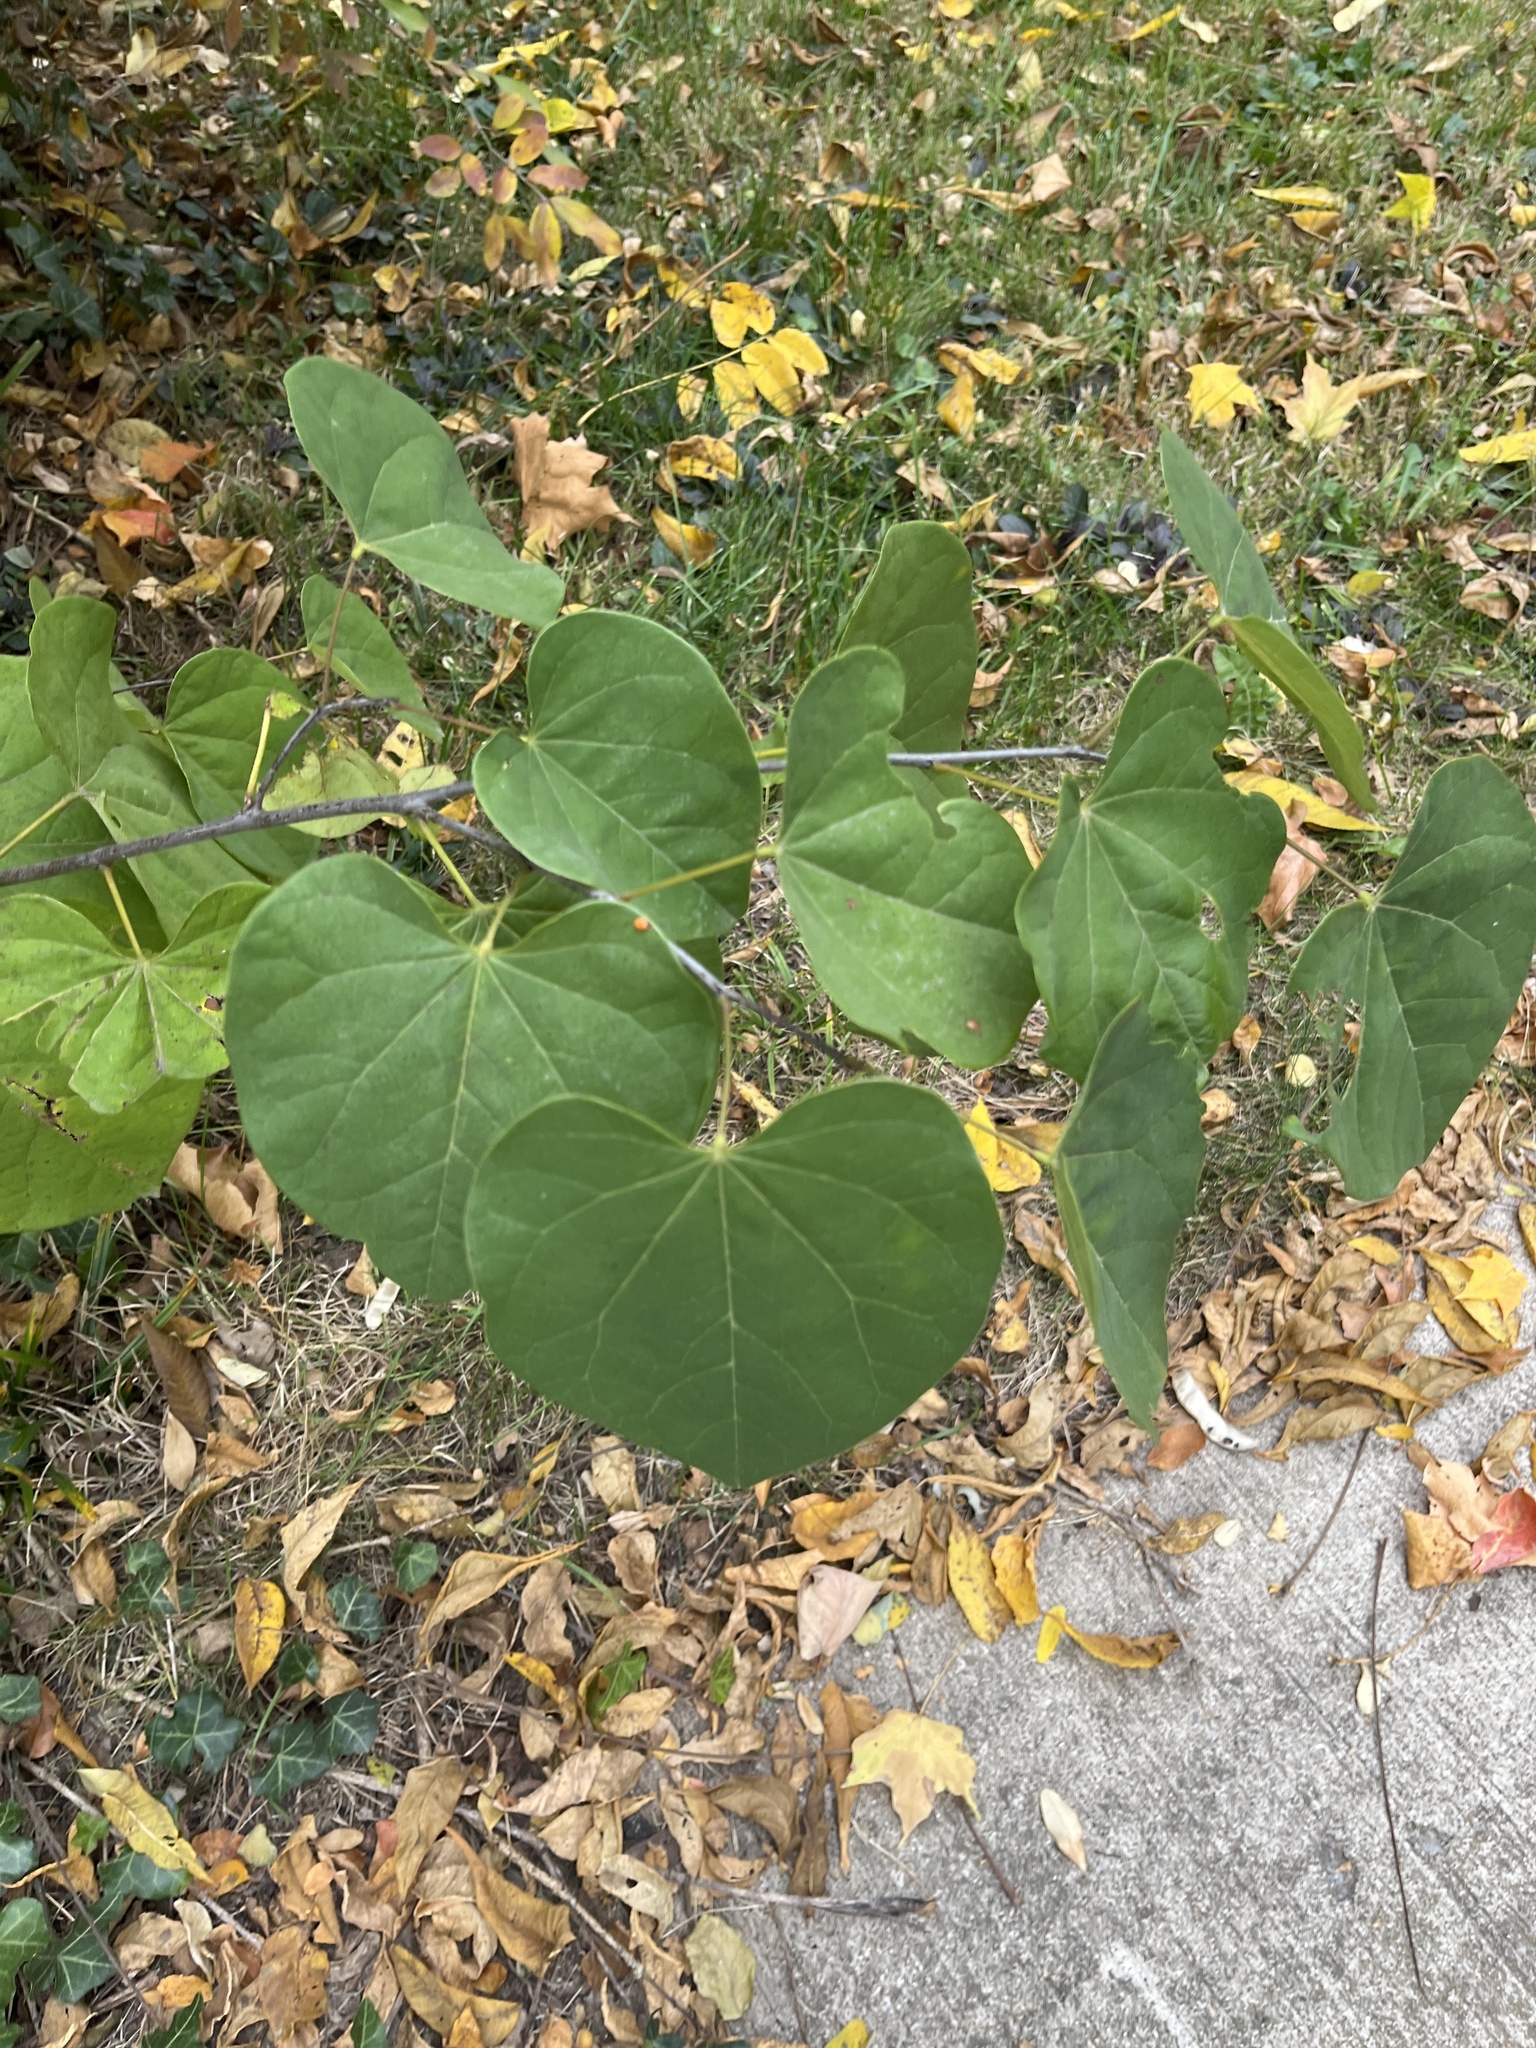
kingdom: Plantae
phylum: Tracheophyta
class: Magnoliopsida
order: Fabales
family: Fabaceae
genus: Cercis
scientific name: Cercis canadensis
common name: Eastern redbud
